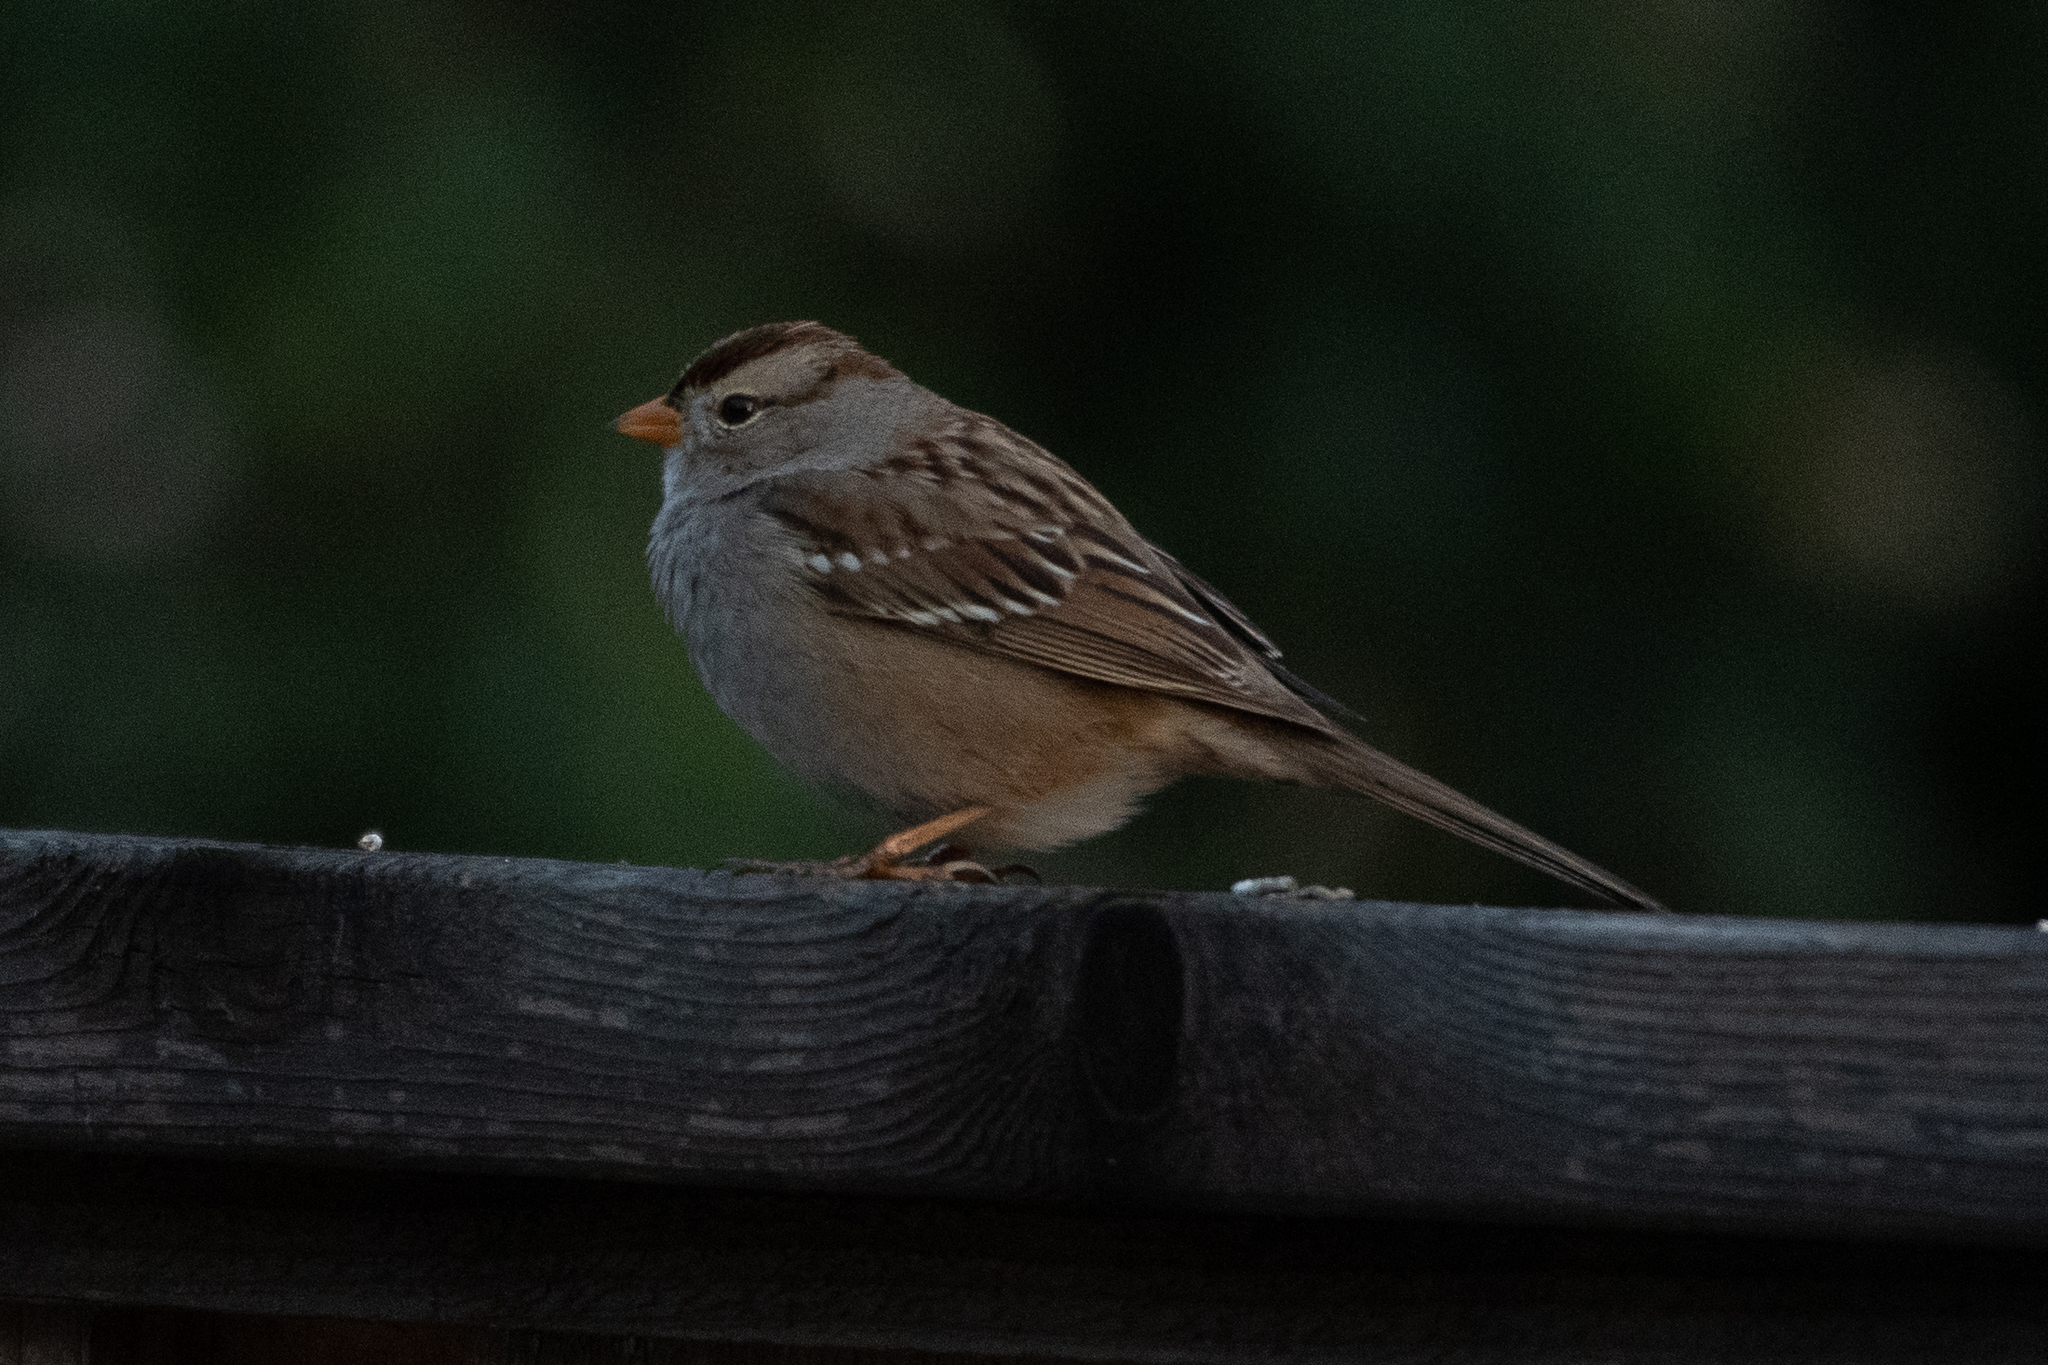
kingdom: Animalia
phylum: Chordata
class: Aves
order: Passeriformes
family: Passerellidae
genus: Zonotrichia
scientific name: Zonotrichia leucophrys
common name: White-crowned sparrow
